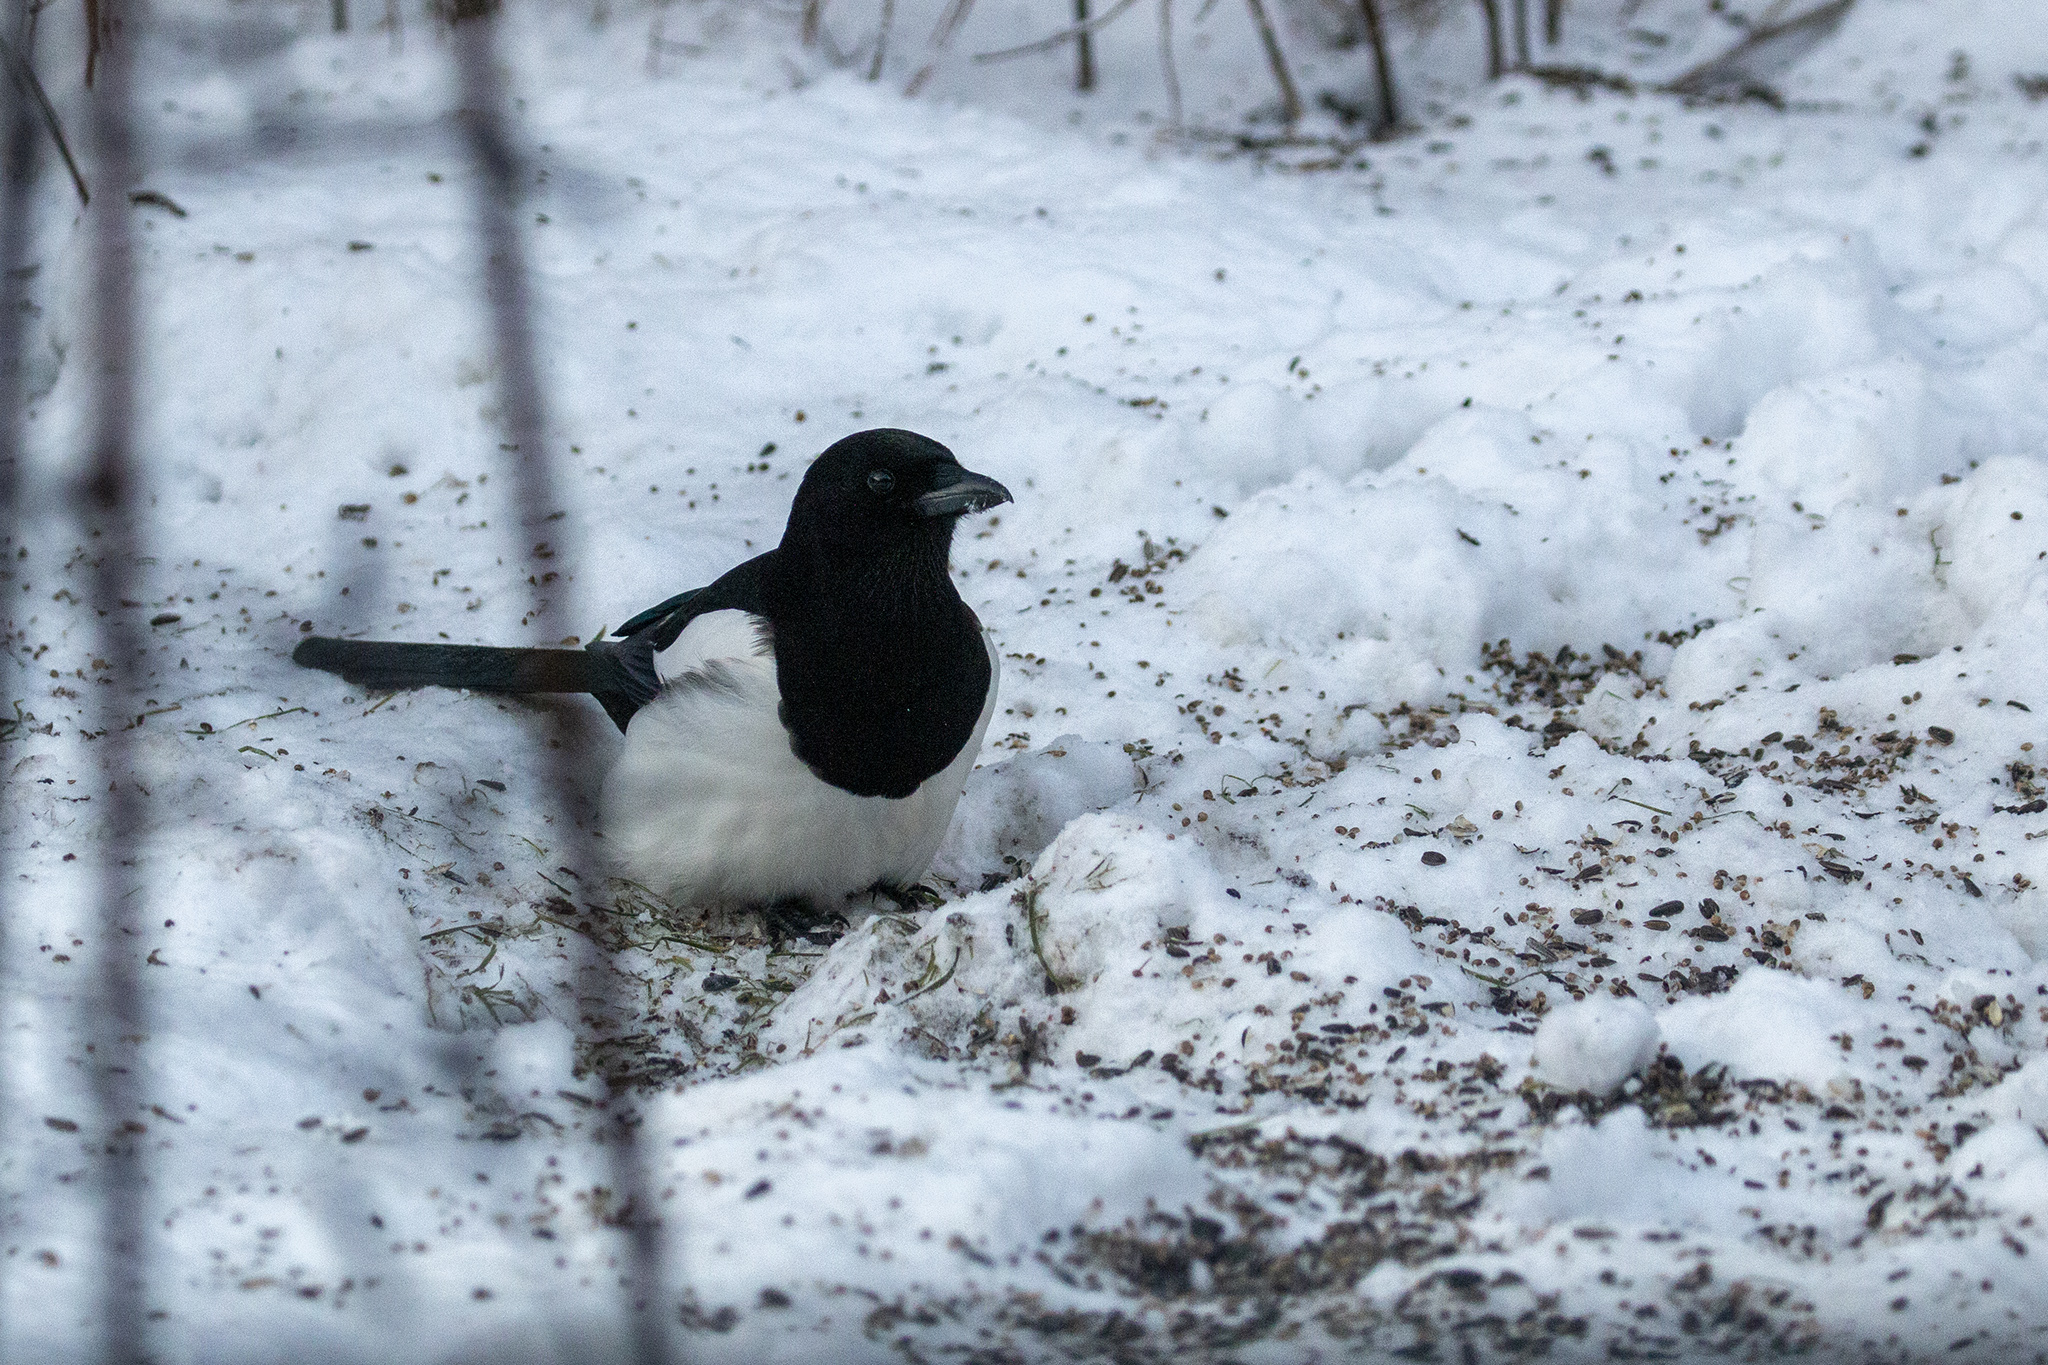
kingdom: Animalia
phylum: Chordata
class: Aves
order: Passeriformes
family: Corvidae
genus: Pica
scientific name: Pica pica
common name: Eurasian magpie
